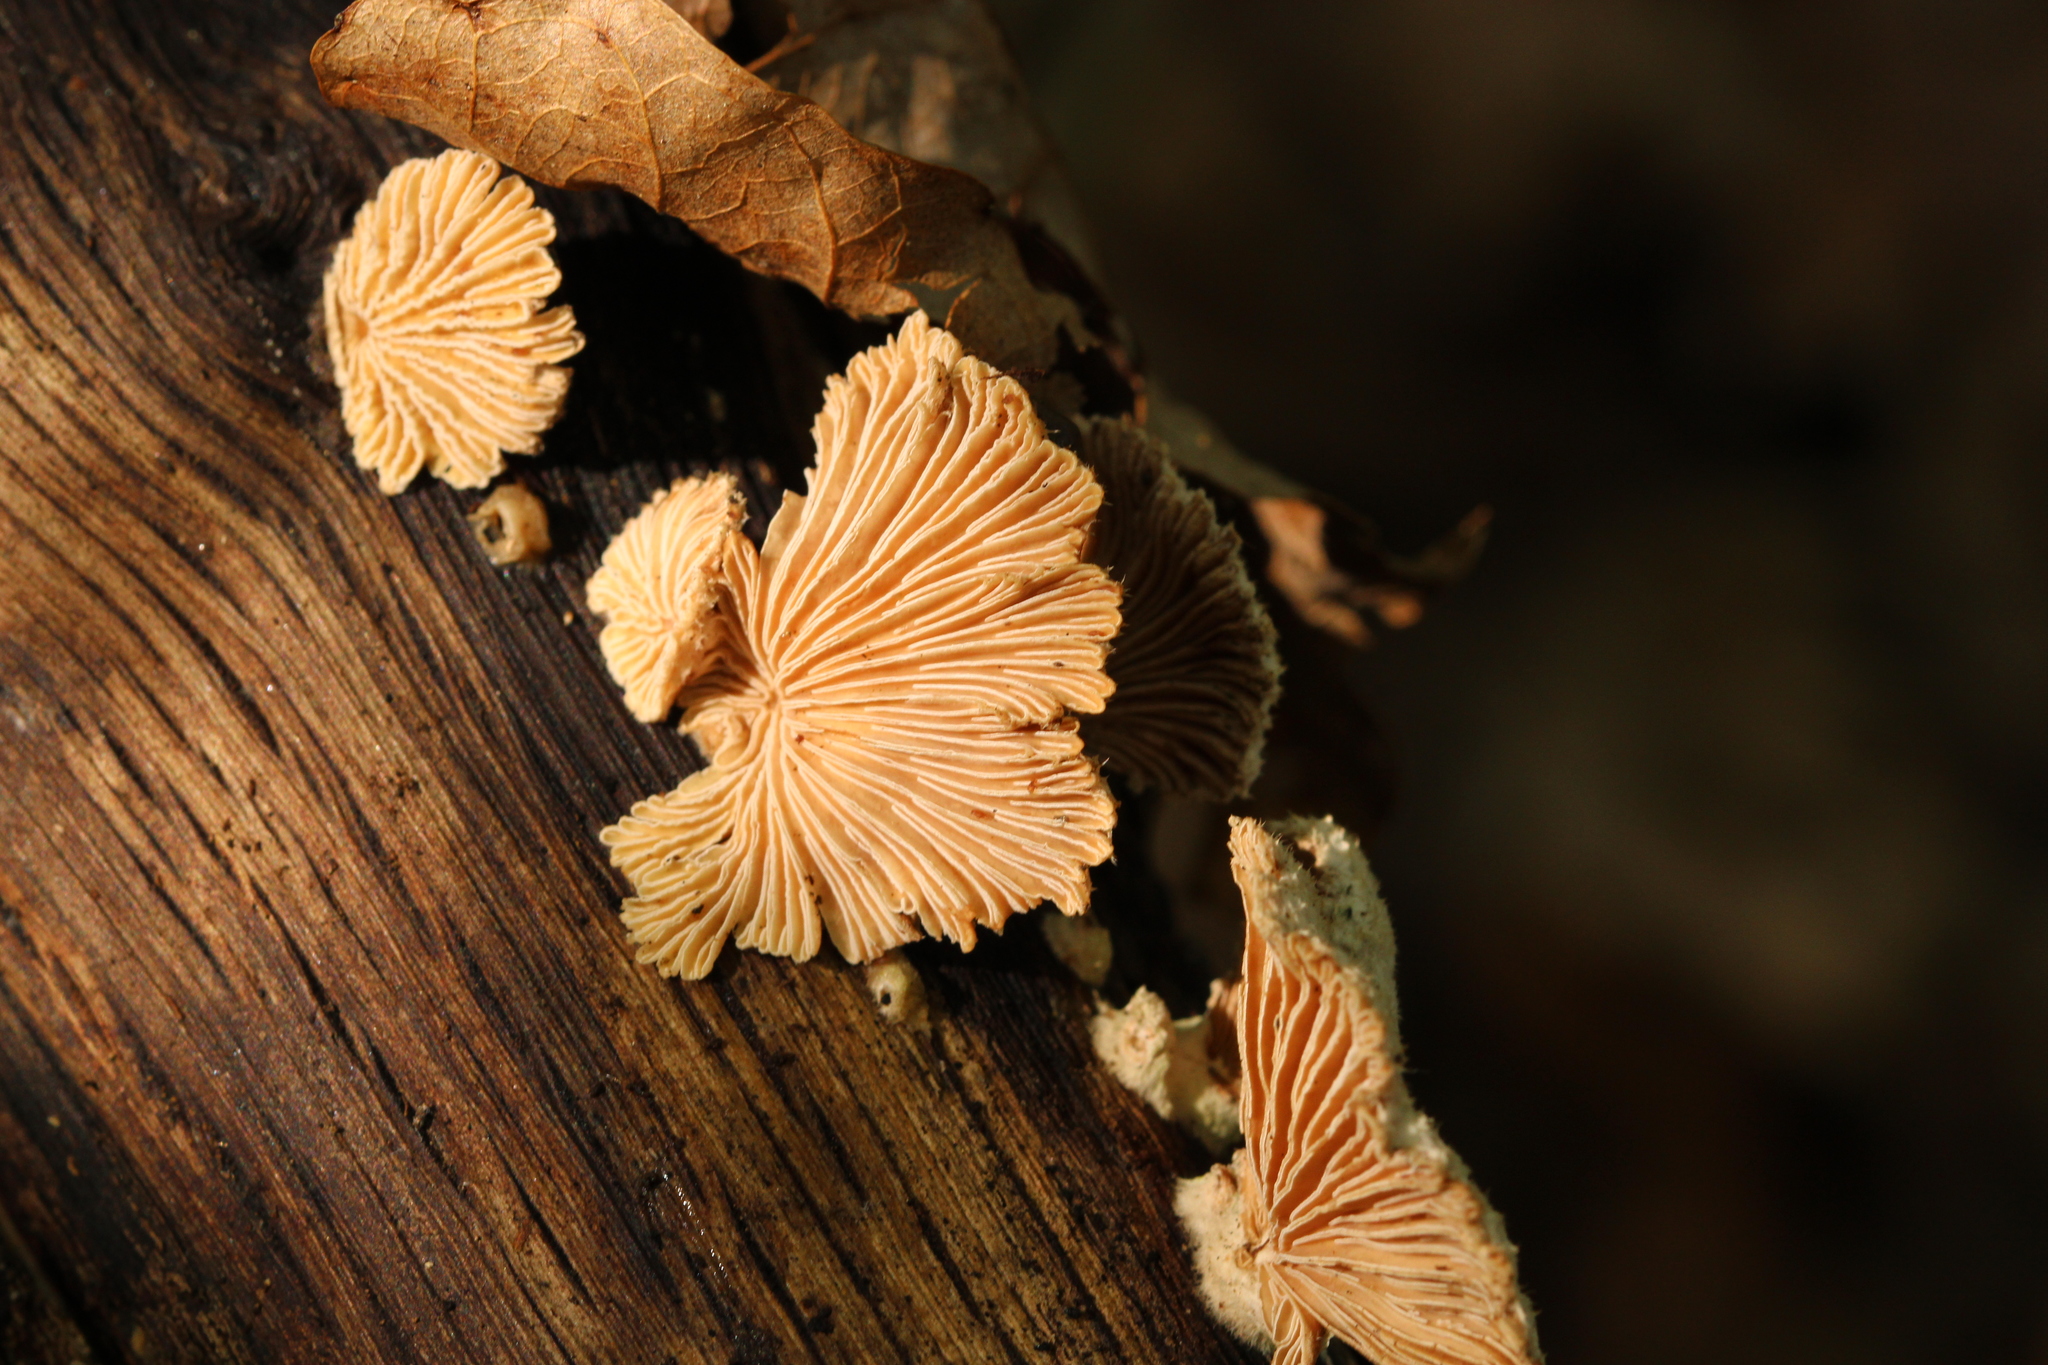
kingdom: Fungi
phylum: Basidiomycota
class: Agaricomycetes
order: Agaricales
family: Schizophyllaceae
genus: Schizophyllum
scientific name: Schizophyllum commune
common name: Common porecrust
